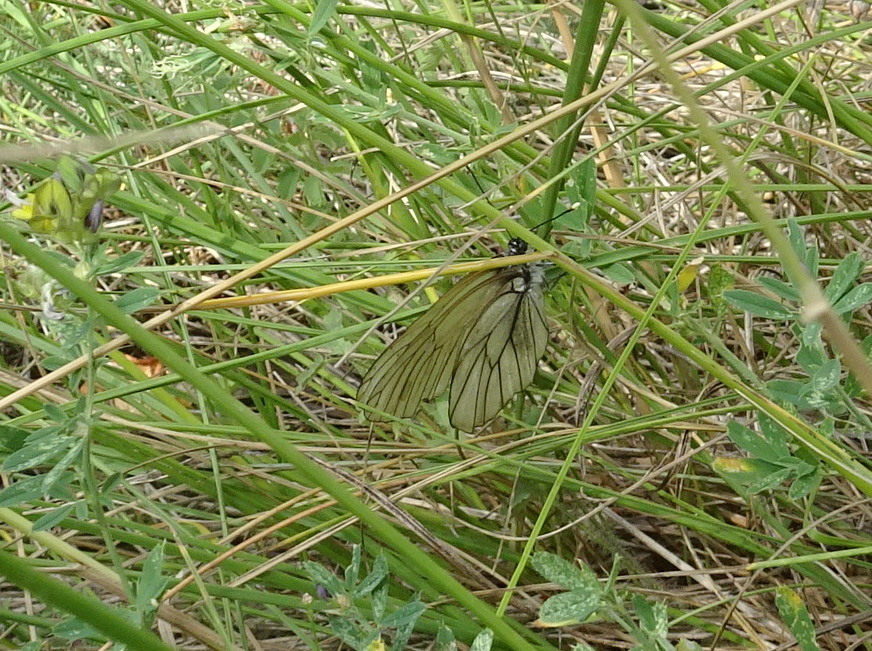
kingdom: Animalia
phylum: Arthropoda
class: Insecta
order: Lepidoptera
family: Pieridae
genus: Aporia
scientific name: Aporia crataegi
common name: Black-veined white
